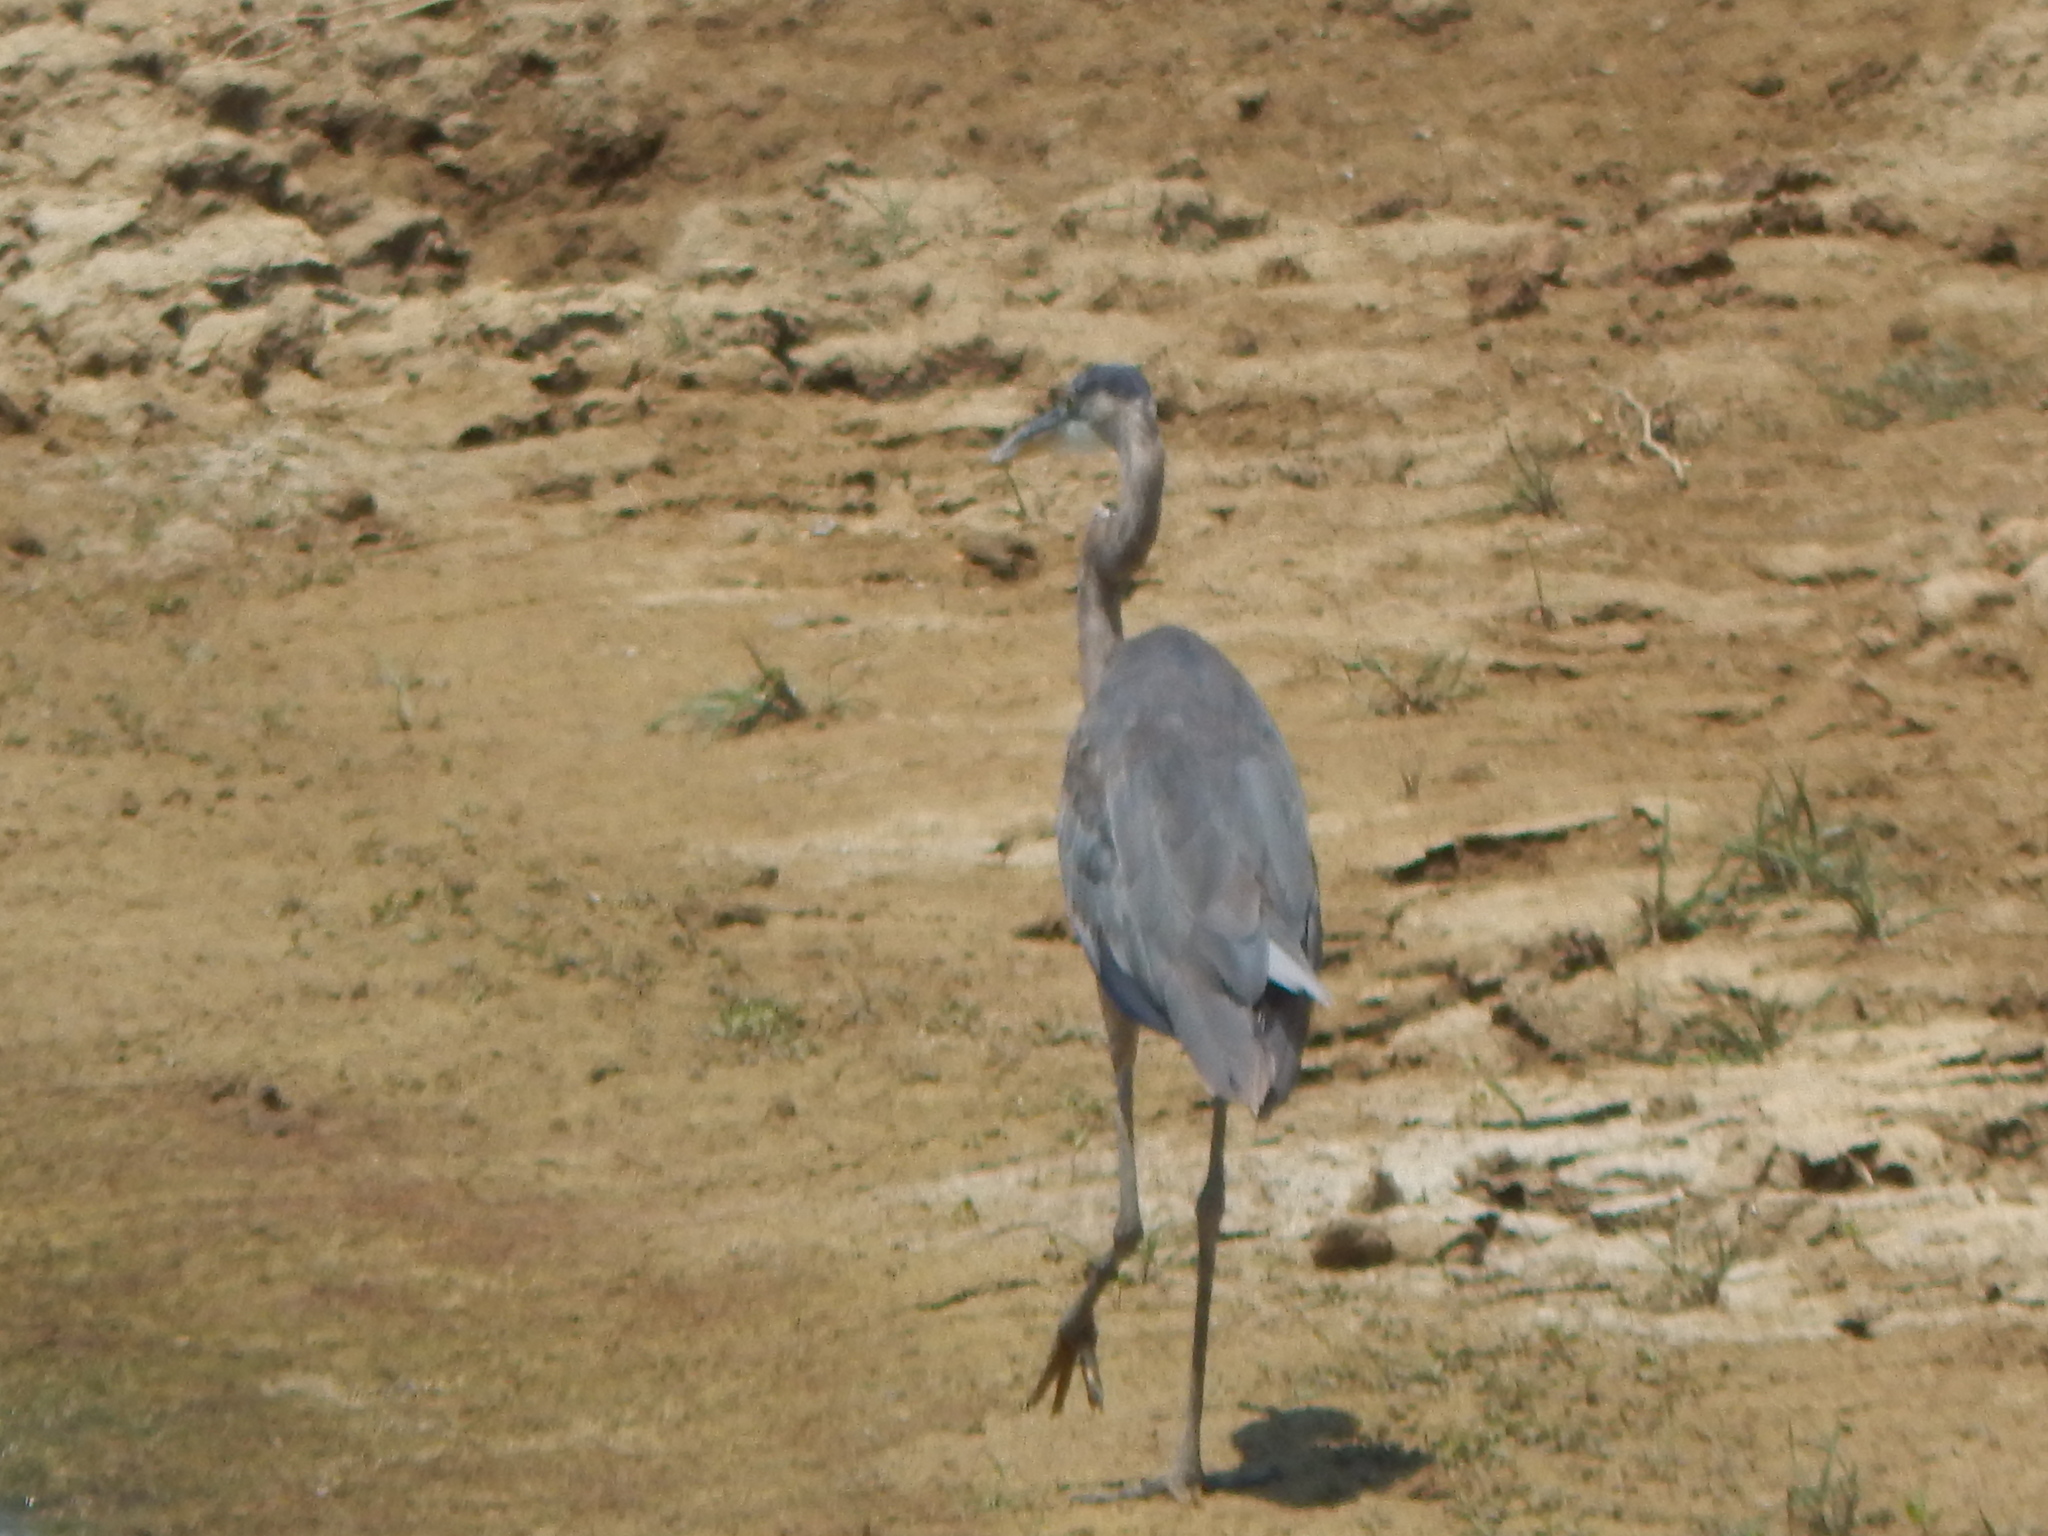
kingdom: Animalia
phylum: Chordata
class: Aves
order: Pelecaniformes
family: Ardeidae
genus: Ardea
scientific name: Ardea herodias
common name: Great blue heron
